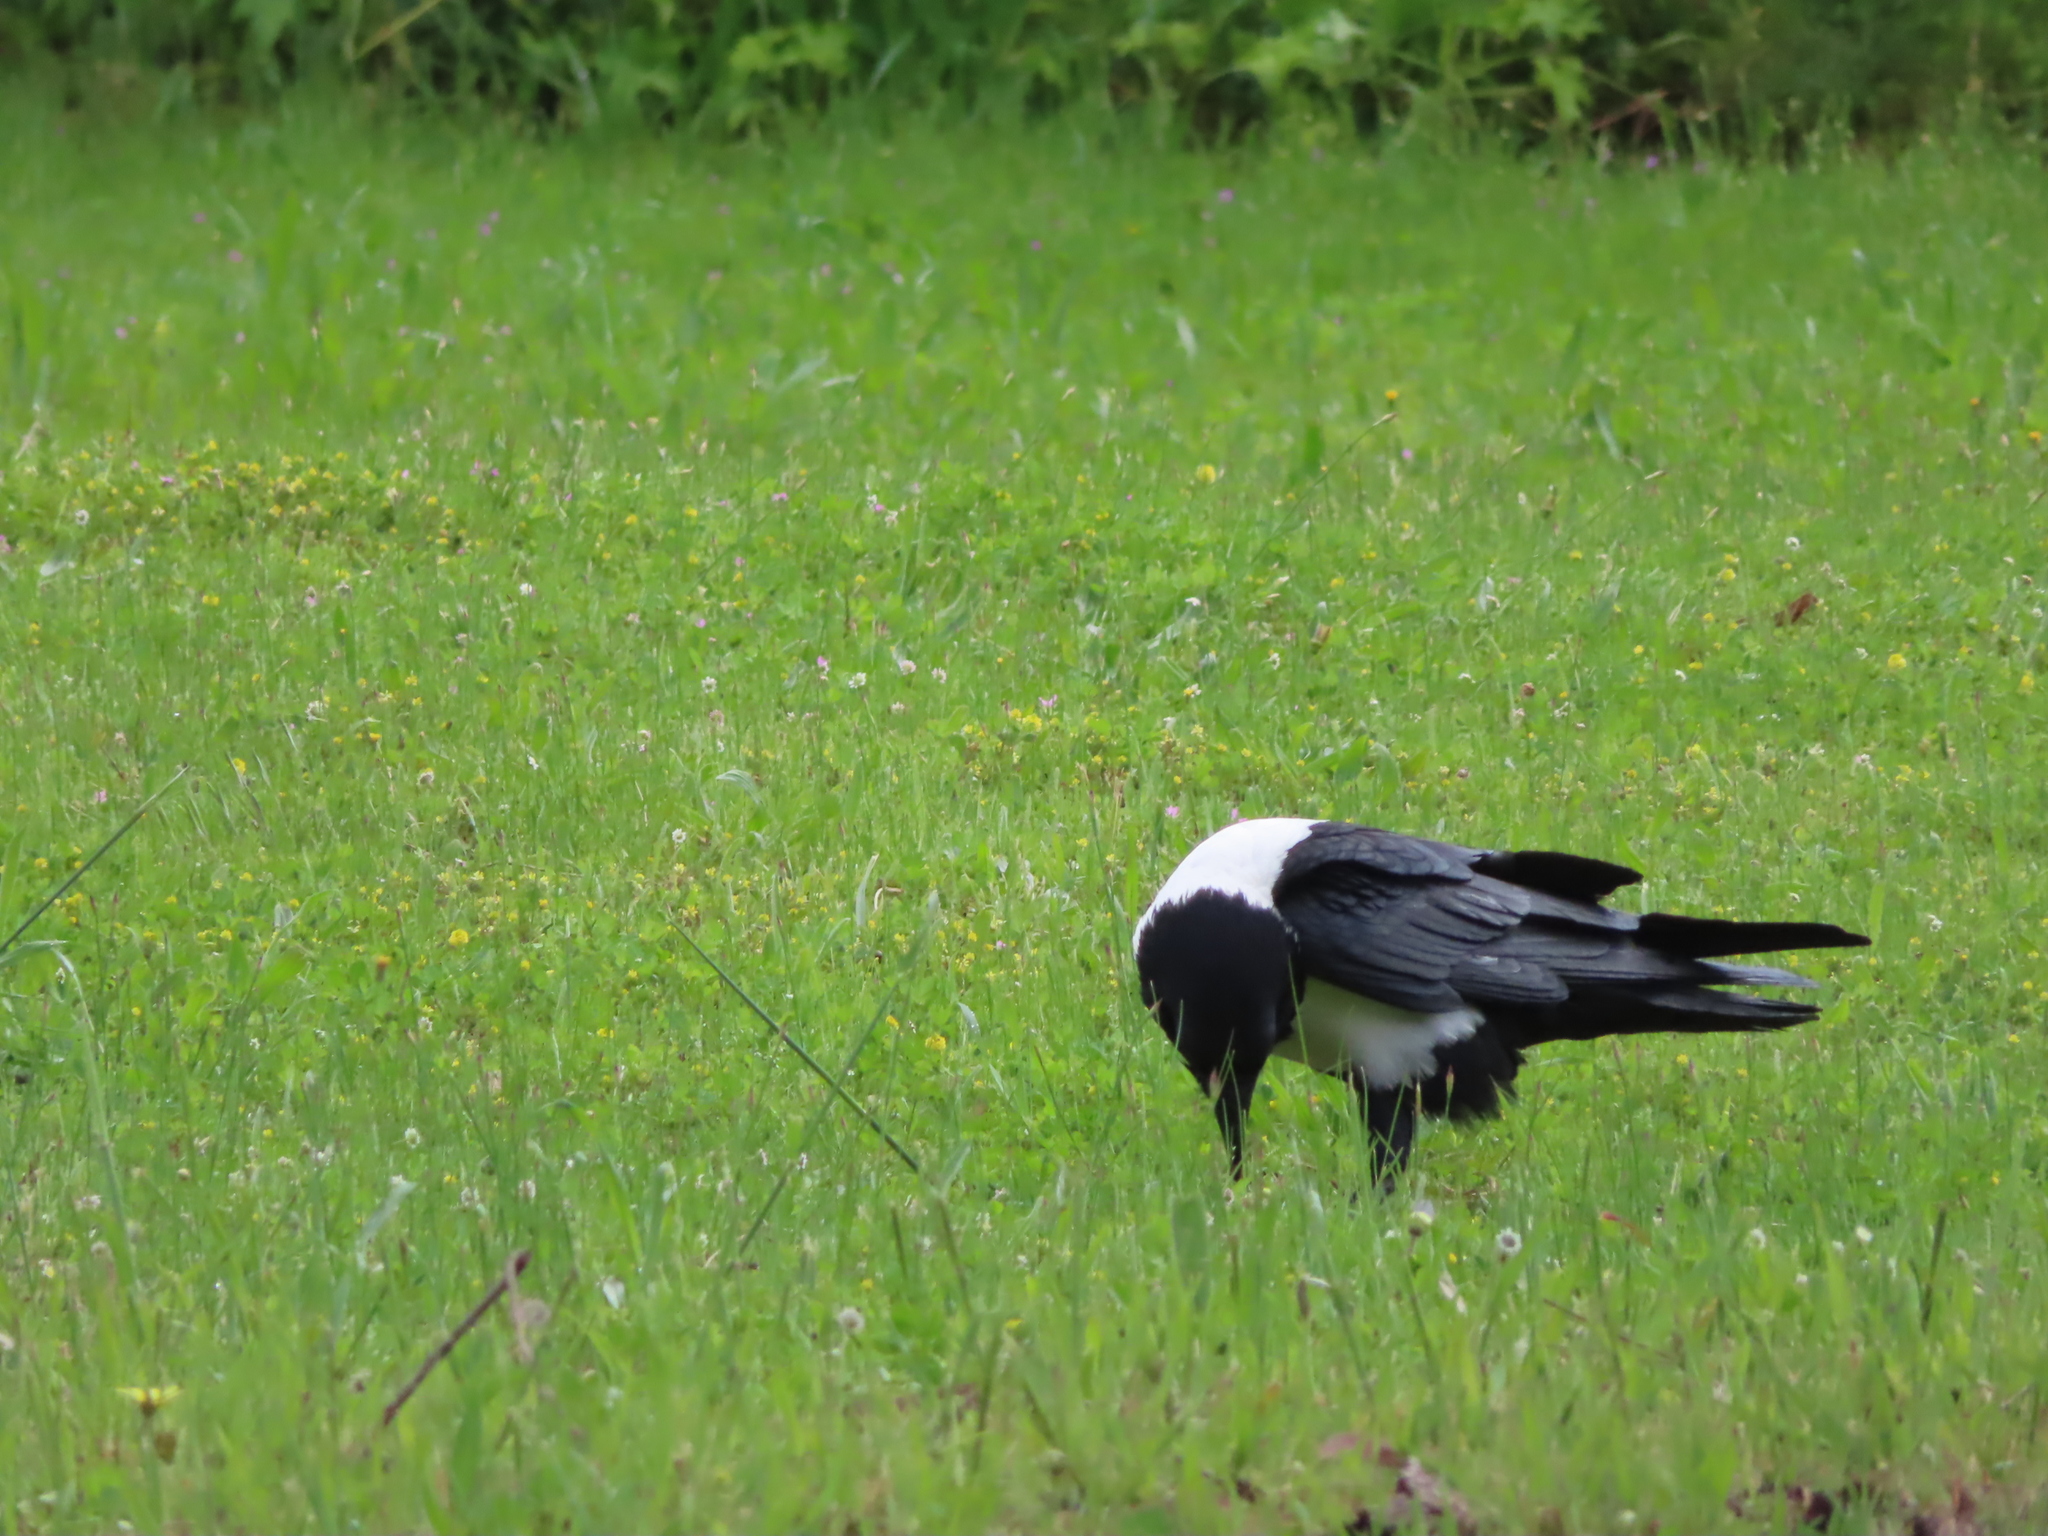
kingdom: Animalia
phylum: Chordata
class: Aves
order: Passeriformes
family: Corvidae
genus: Corvus
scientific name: Corvus albus
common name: Pied crow
